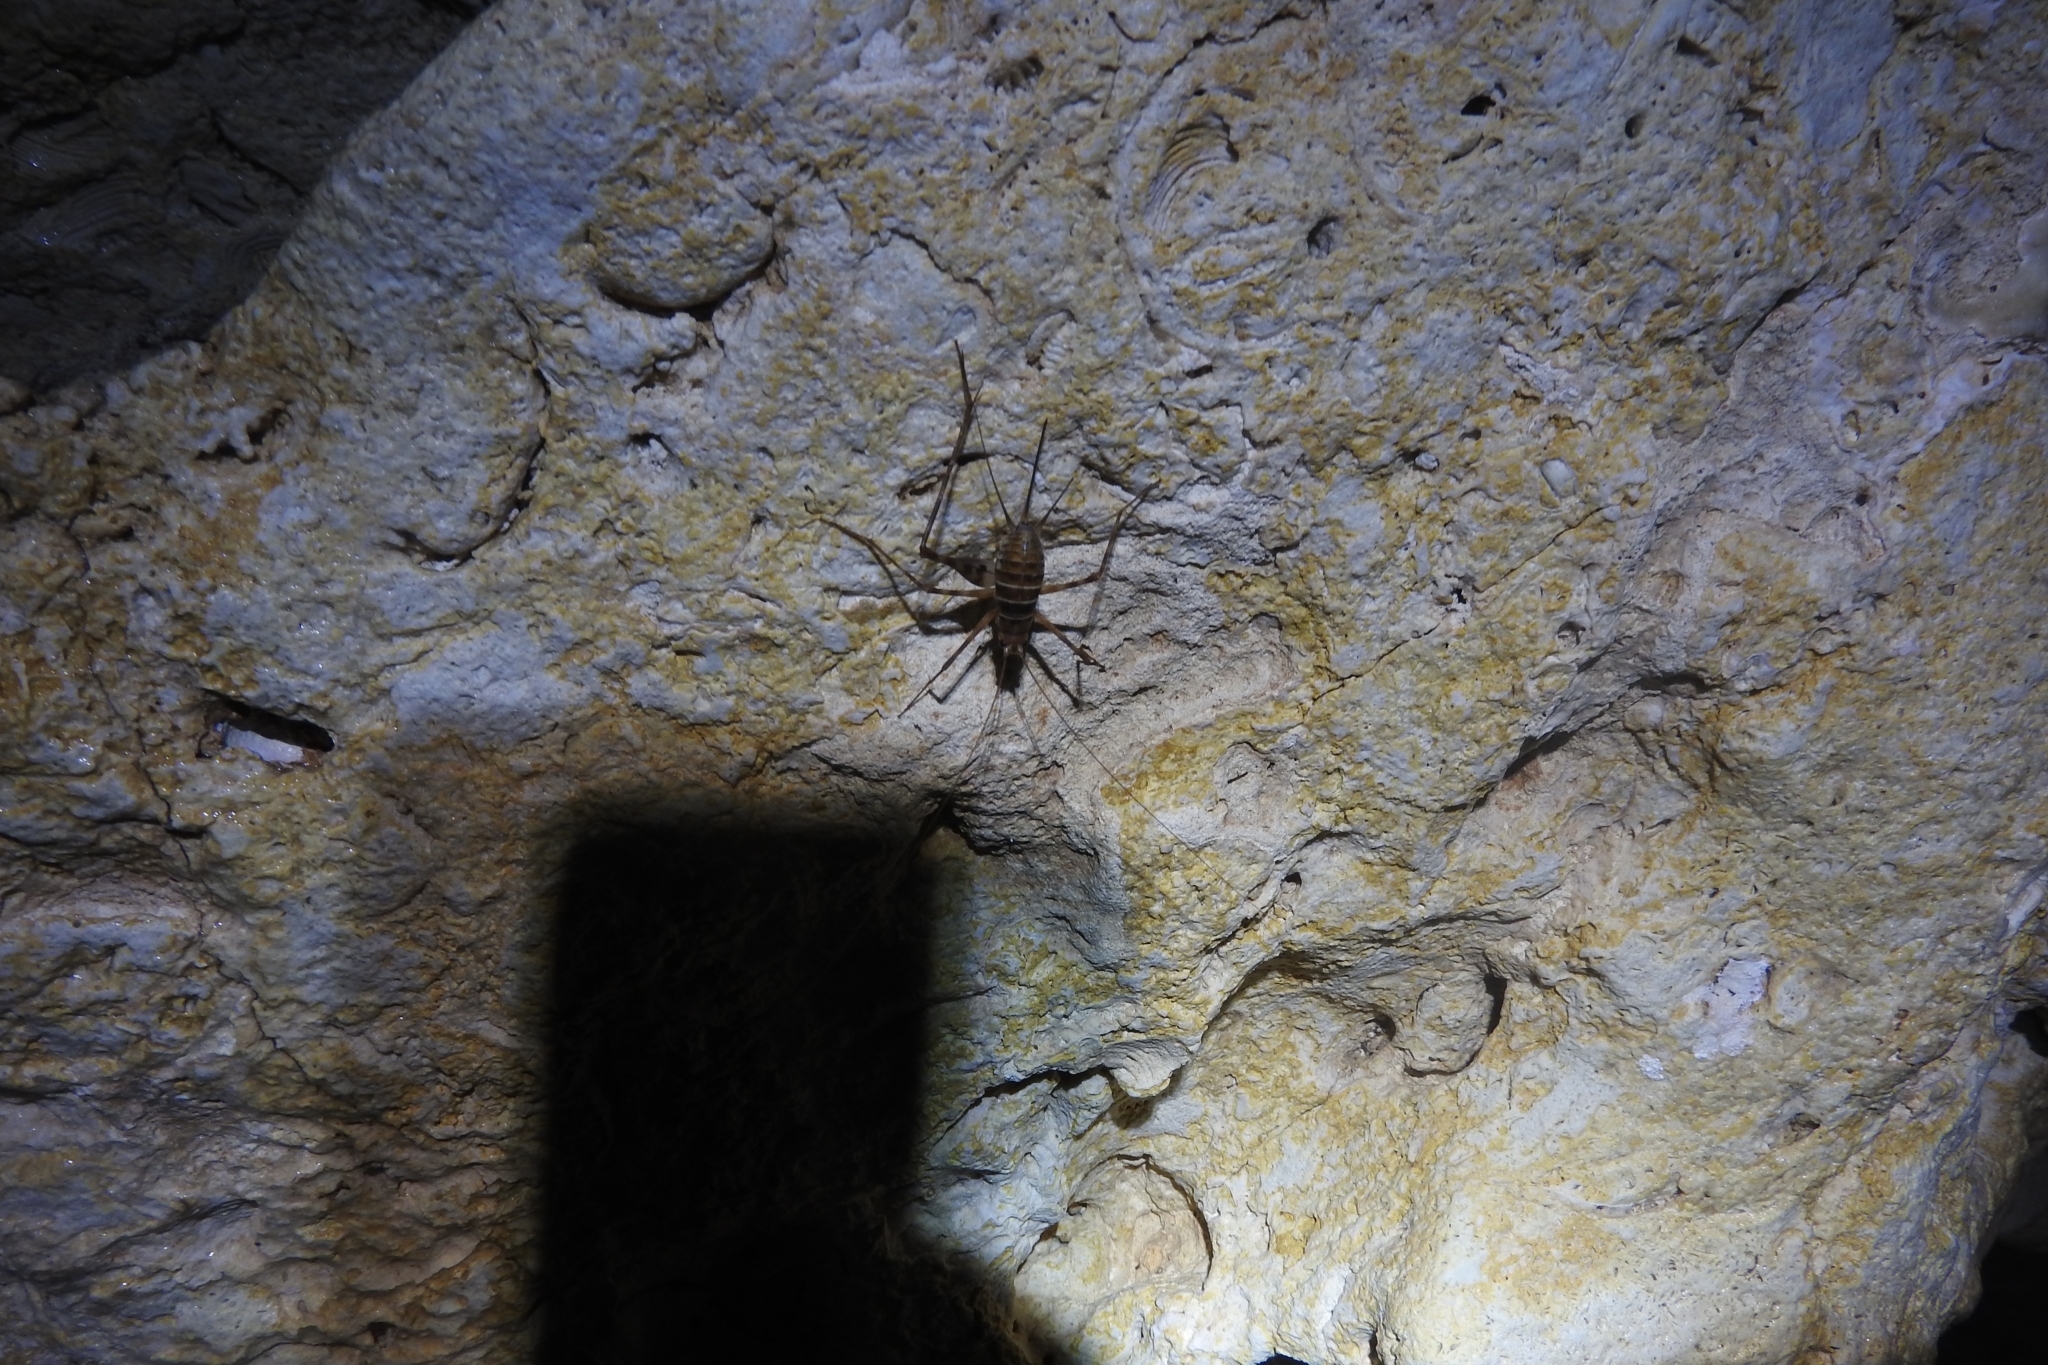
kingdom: Animalia
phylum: Arthropoda
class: Insecta
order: Orthoptera
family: Phalangopsidae
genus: Mayagryllus
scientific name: Mayagryllus yucatanus
